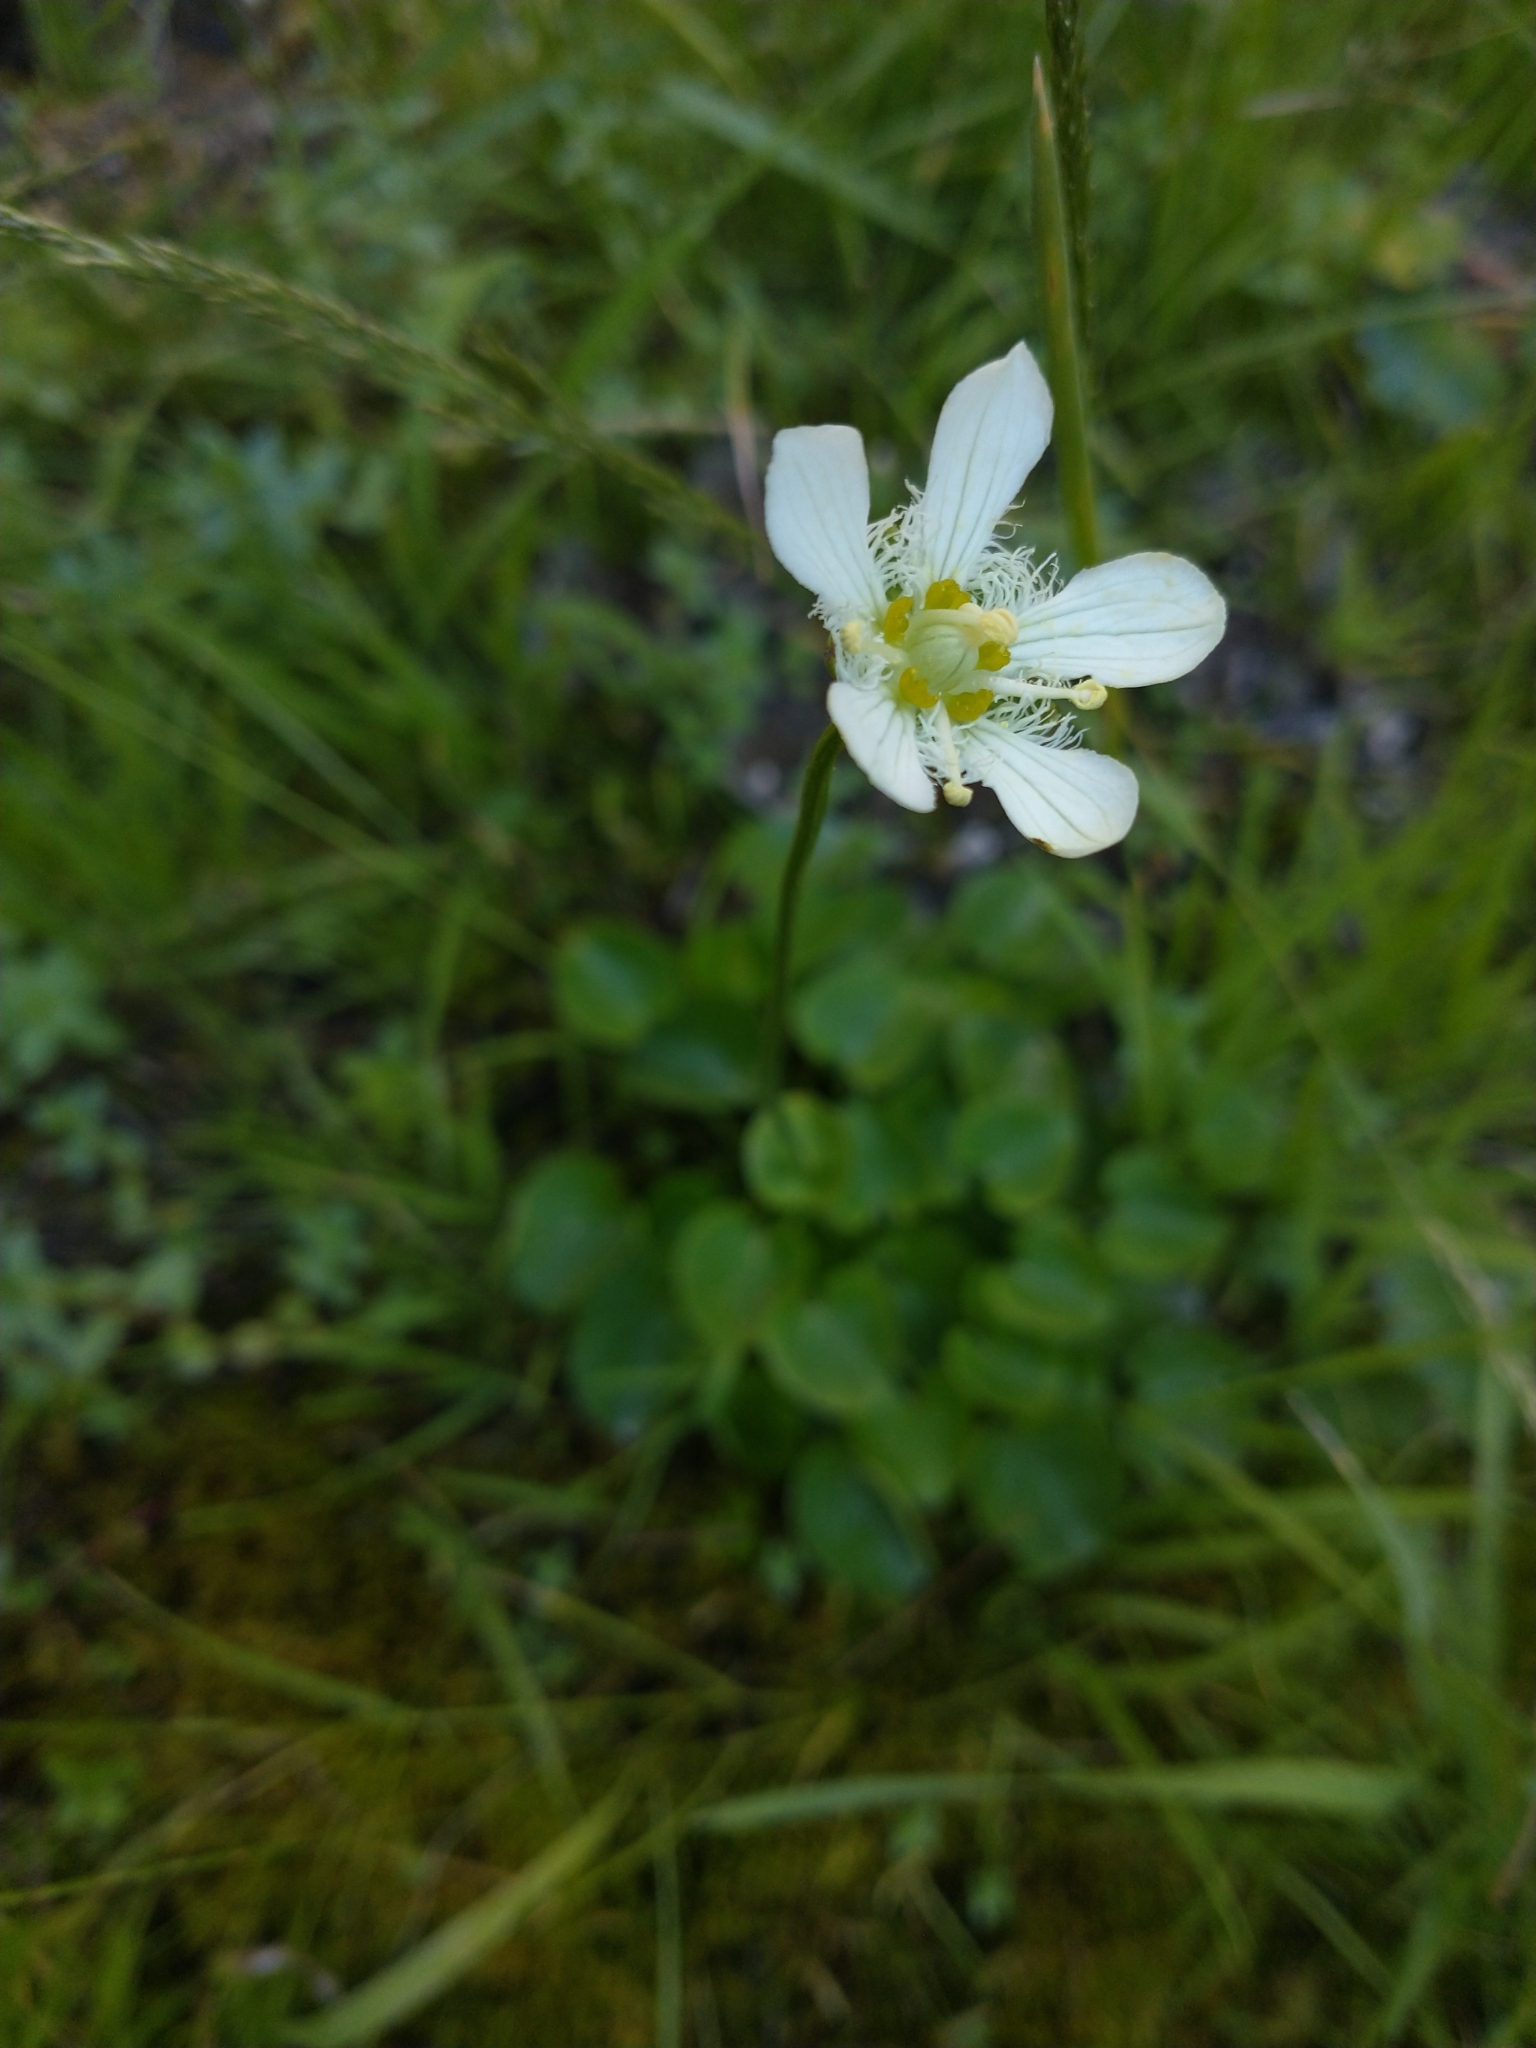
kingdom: Plantae
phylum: Tracheophyta
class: Magnoliopsida
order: Celastrales
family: Parnassiaceae
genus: Parnassia
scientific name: Parnassia fimbriata
